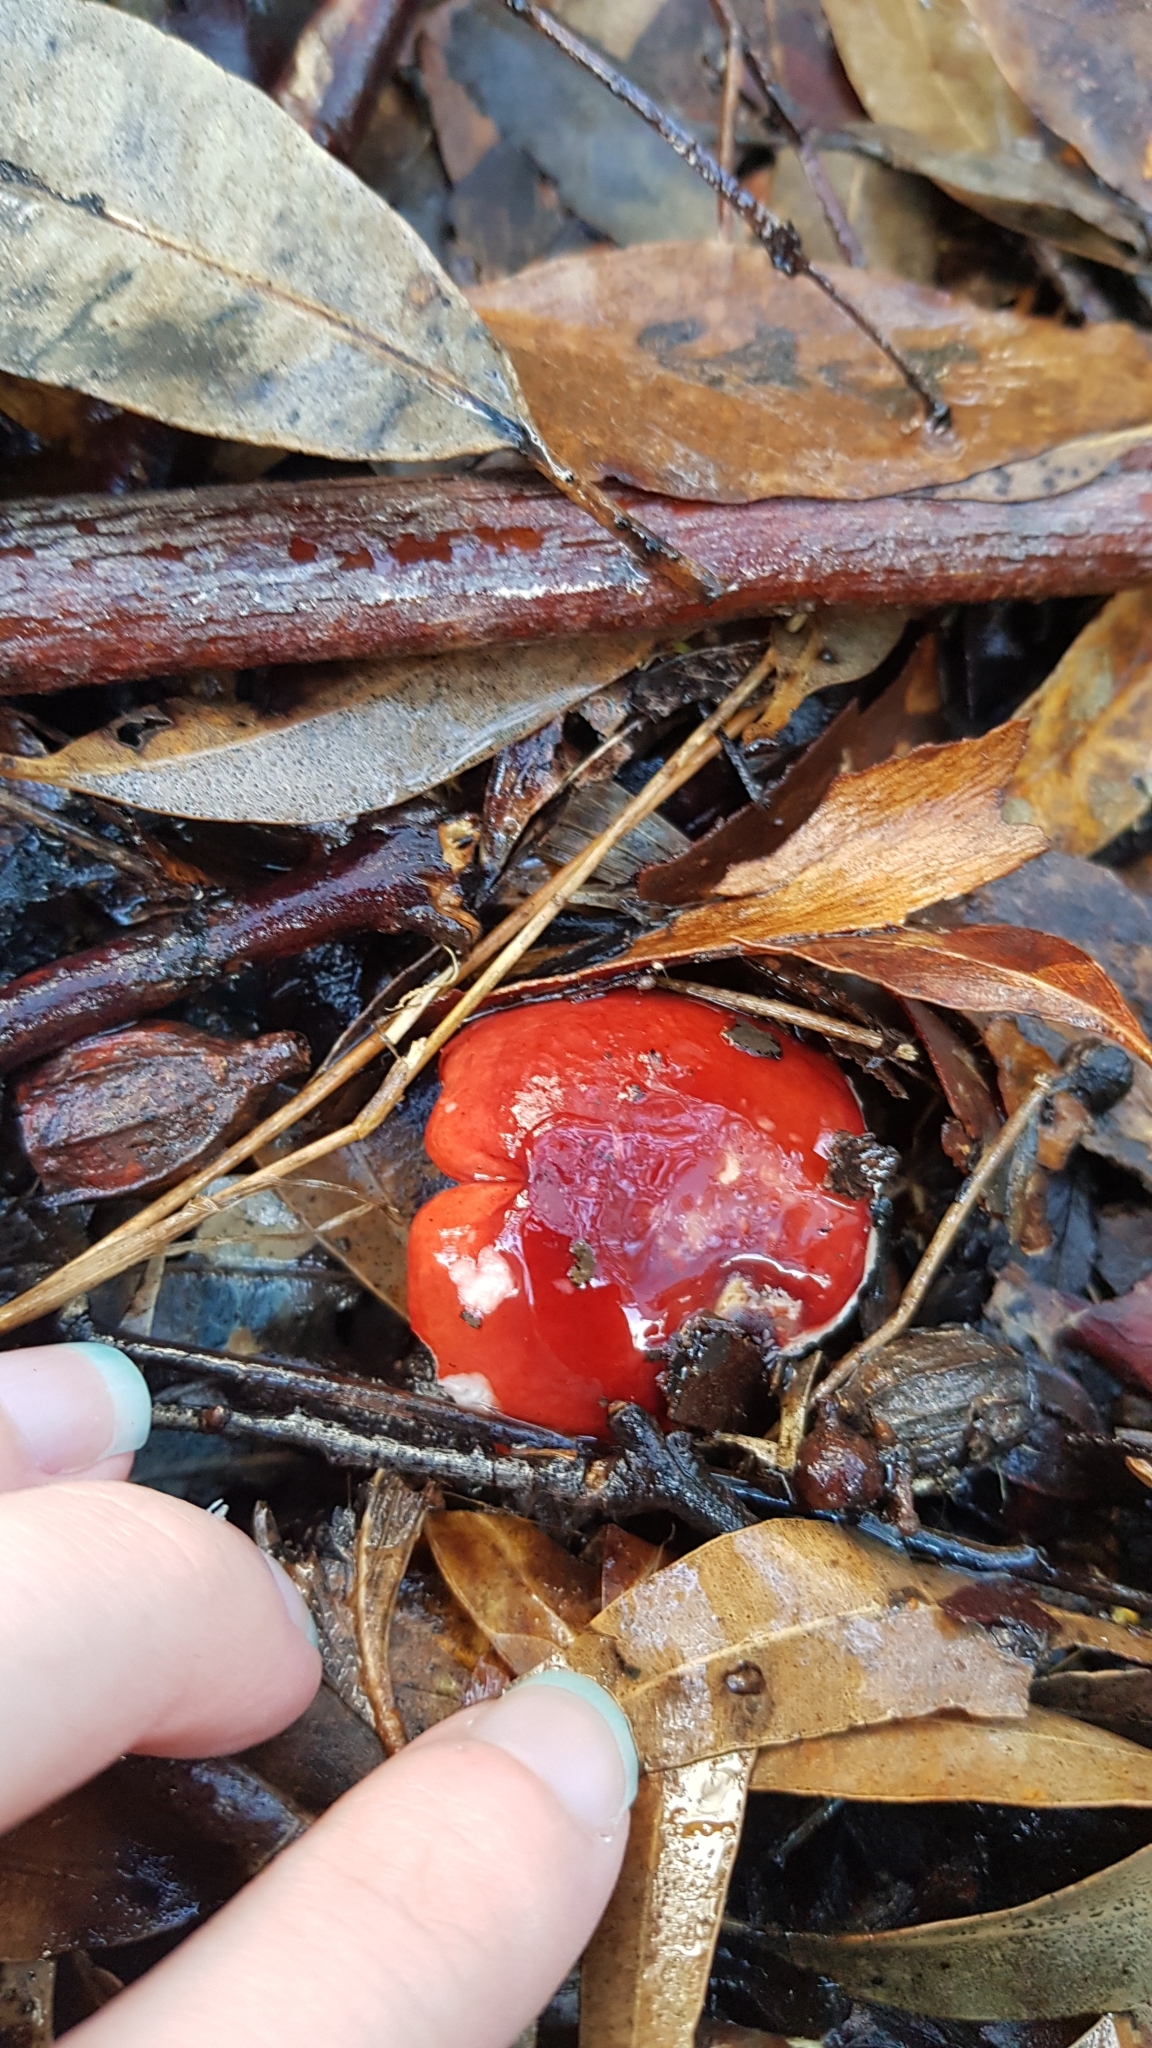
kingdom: Fungi
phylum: Basidiomycota
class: Agaricomycetes
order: Russulales
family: Russulaceae
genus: Russula
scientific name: Russula persanguinea
